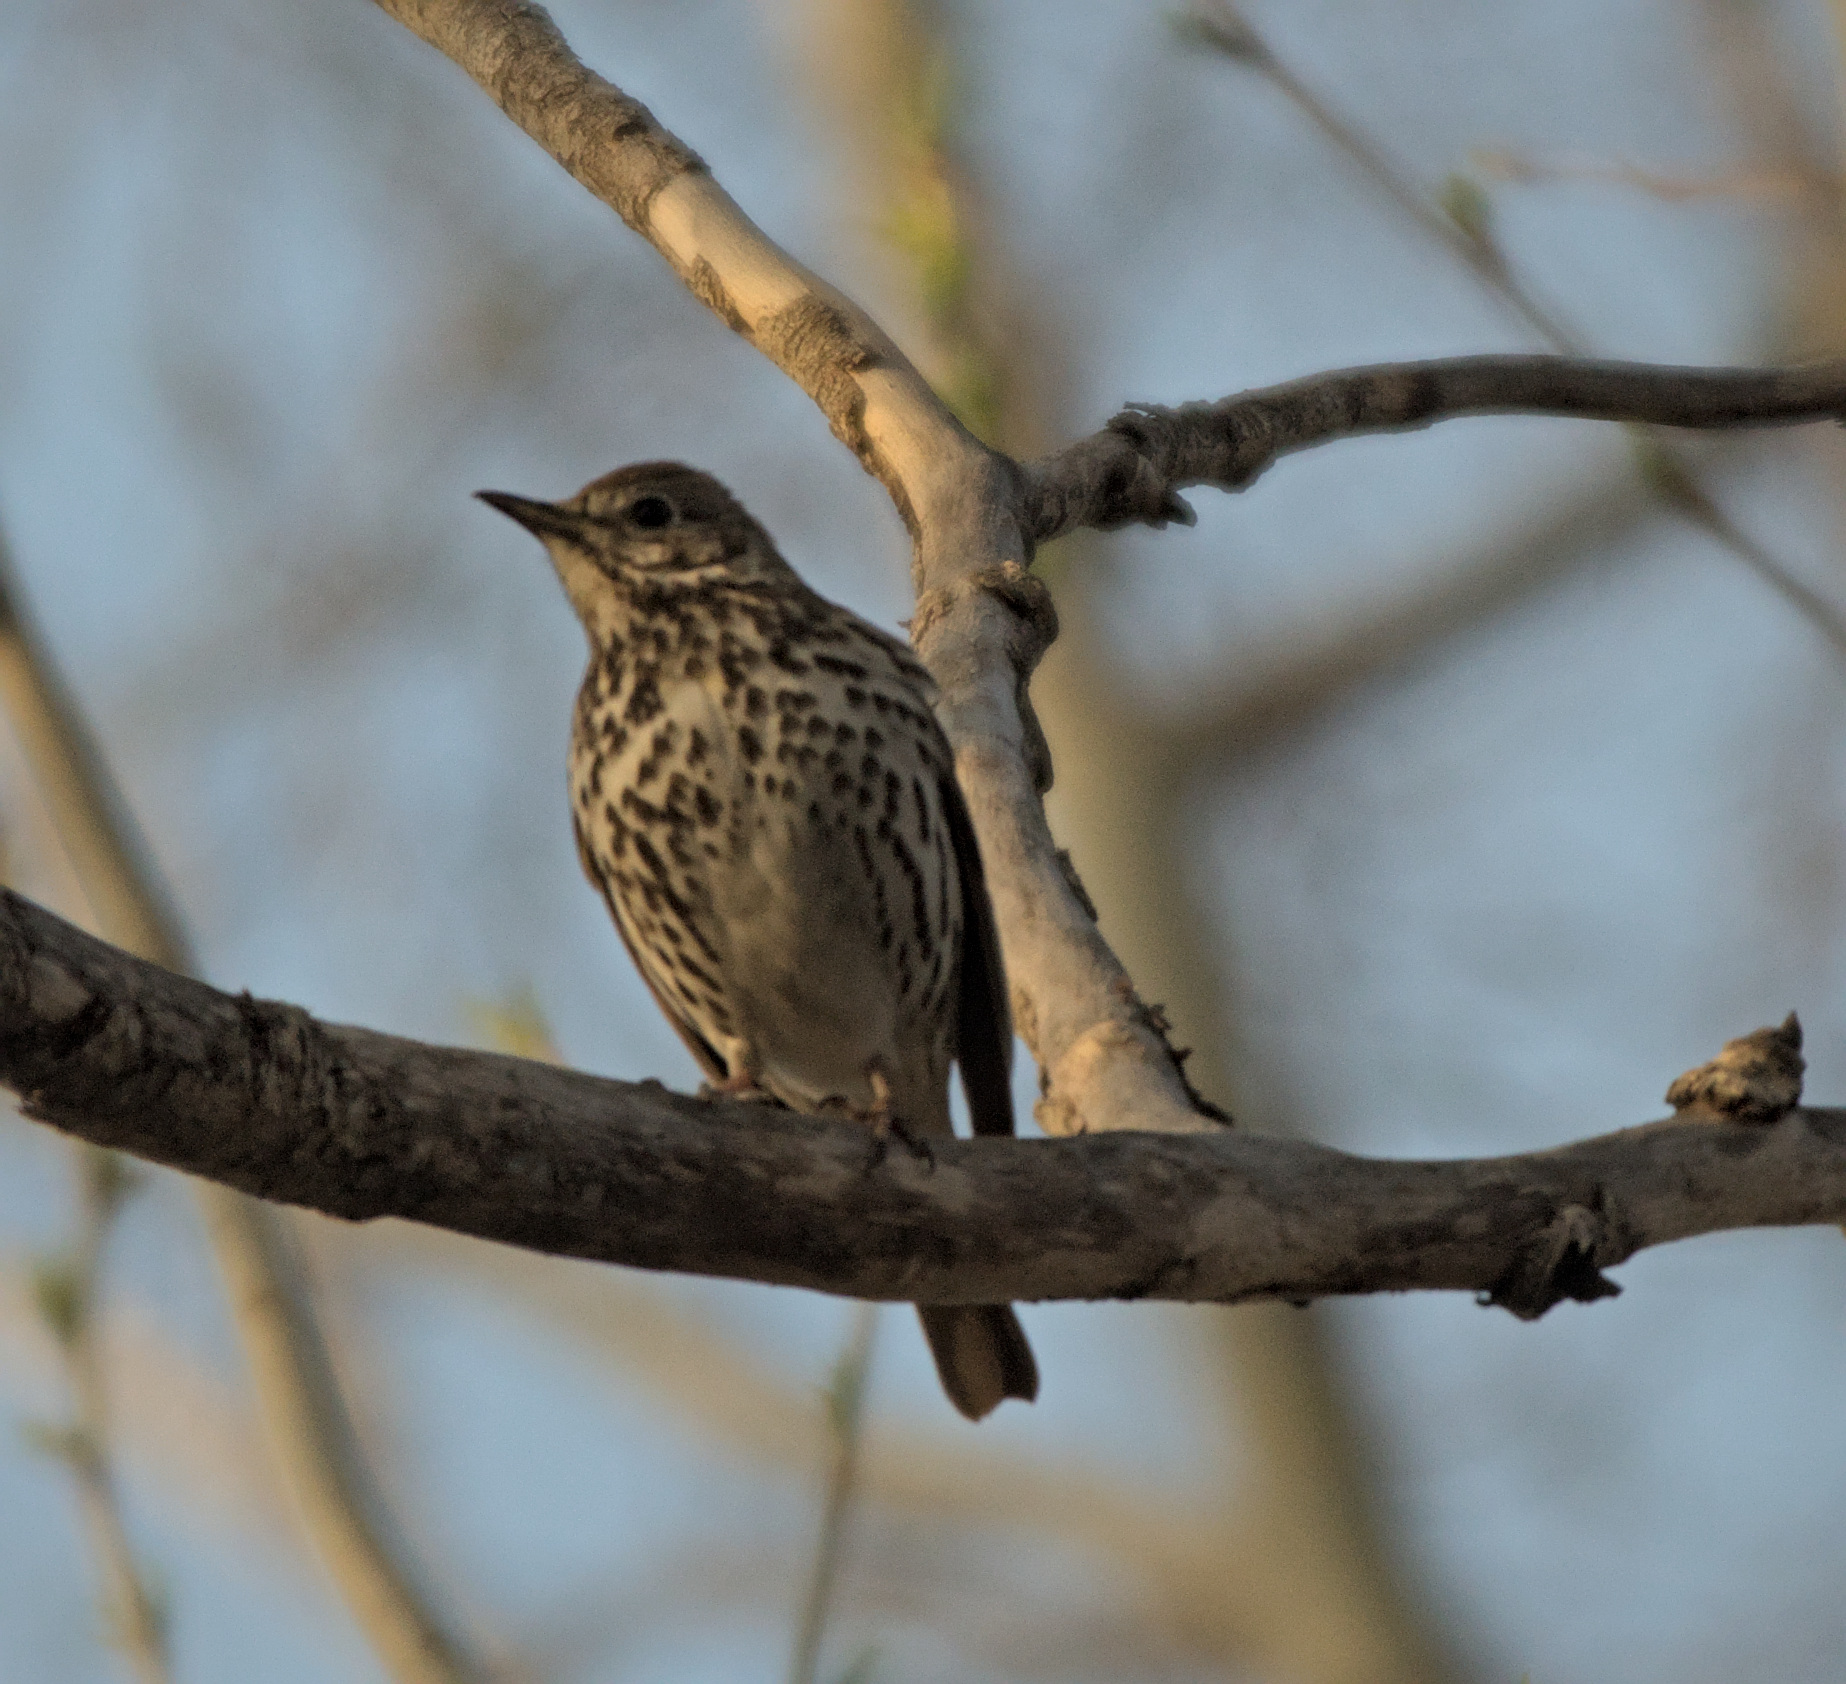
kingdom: Animalia
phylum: Chordata
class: Aves
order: Passeriformes
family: Turdidae
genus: Turdus
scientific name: Turdus philomelos
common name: Song thrush
